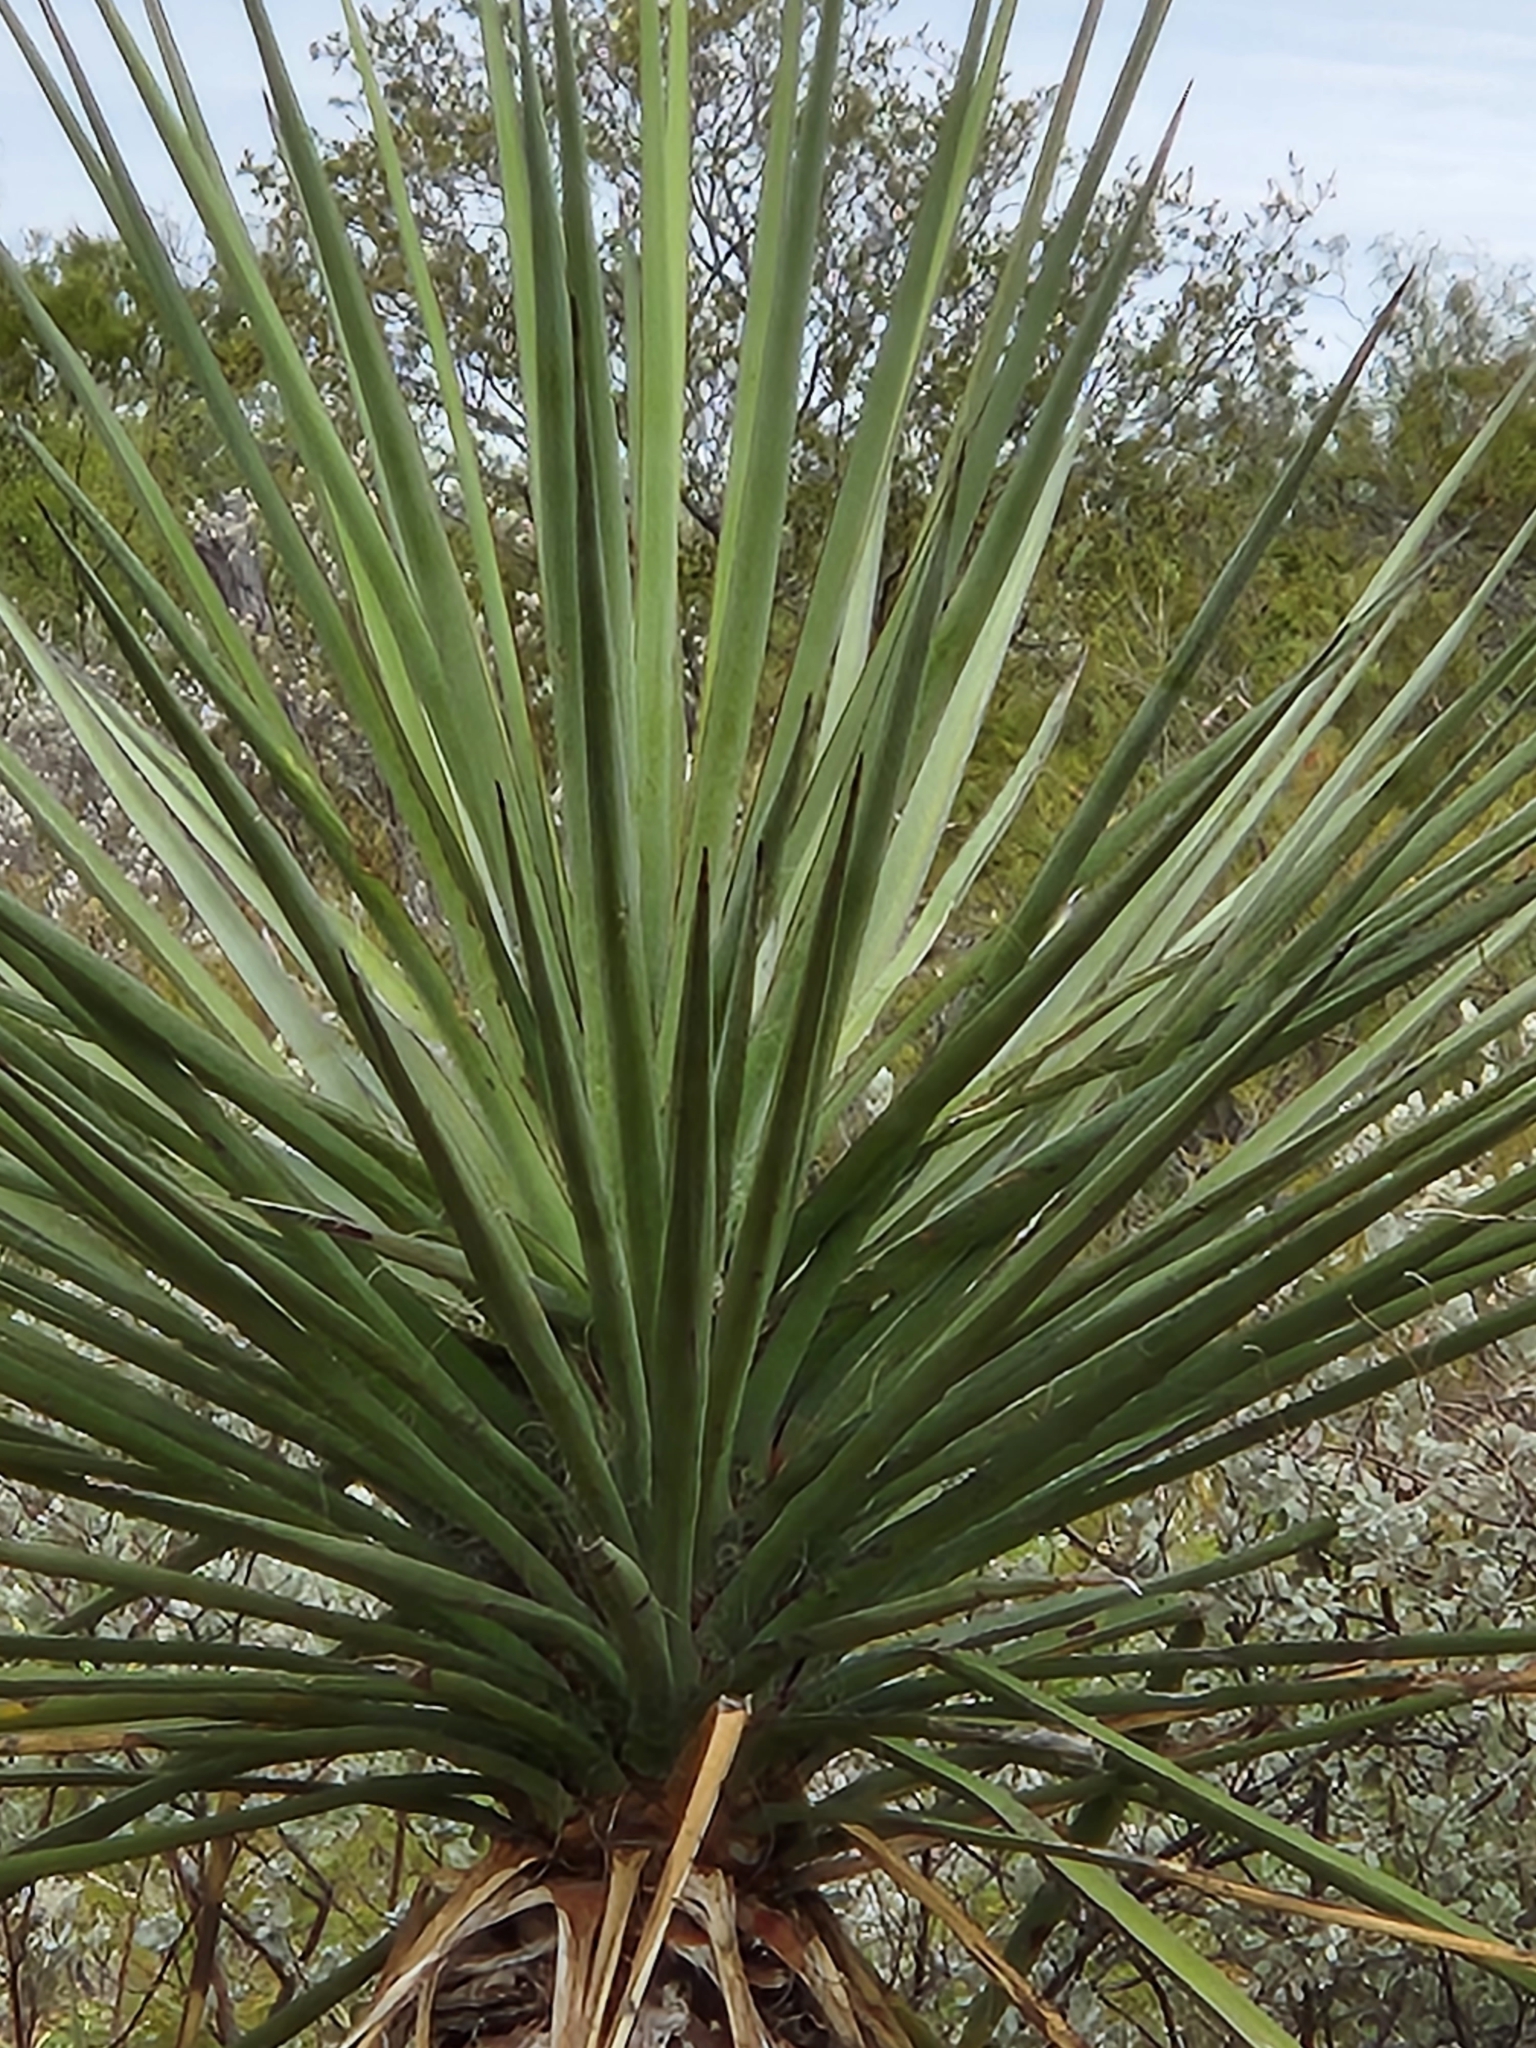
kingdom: Plantae
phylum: Tracheophyta
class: Liliopsida
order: Asparagales
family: Asparagaceae
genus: Yucca
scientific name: Yucca treculiana
